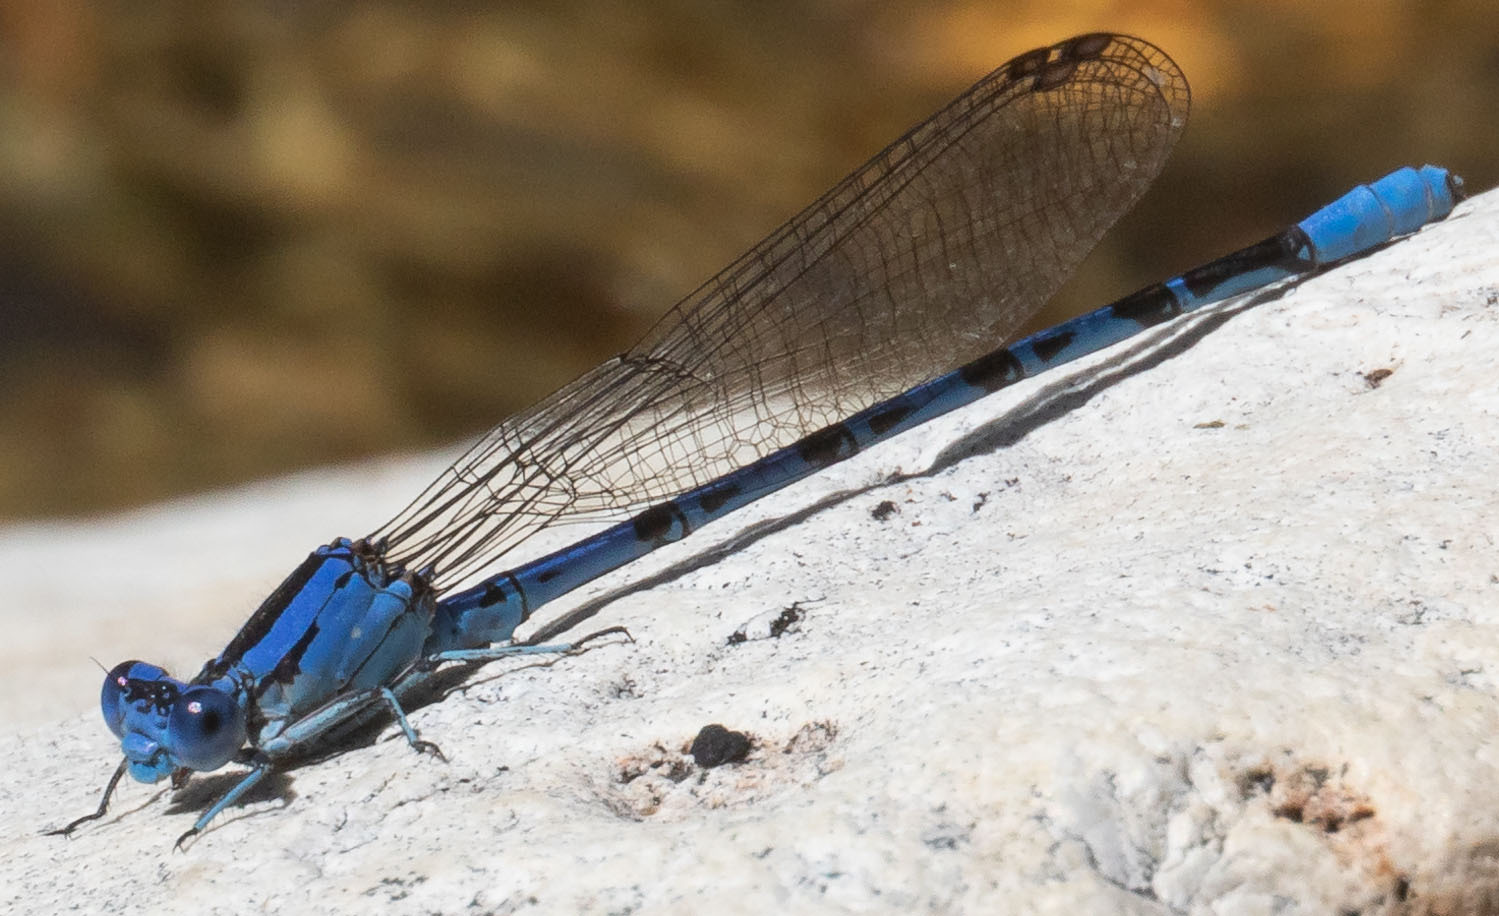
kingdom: Animalia
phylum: Arthropoda
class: Insecta
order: Odonata
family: Coenagrionidae
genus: Argia
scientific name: Argia vivida
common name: Vivid dancer
